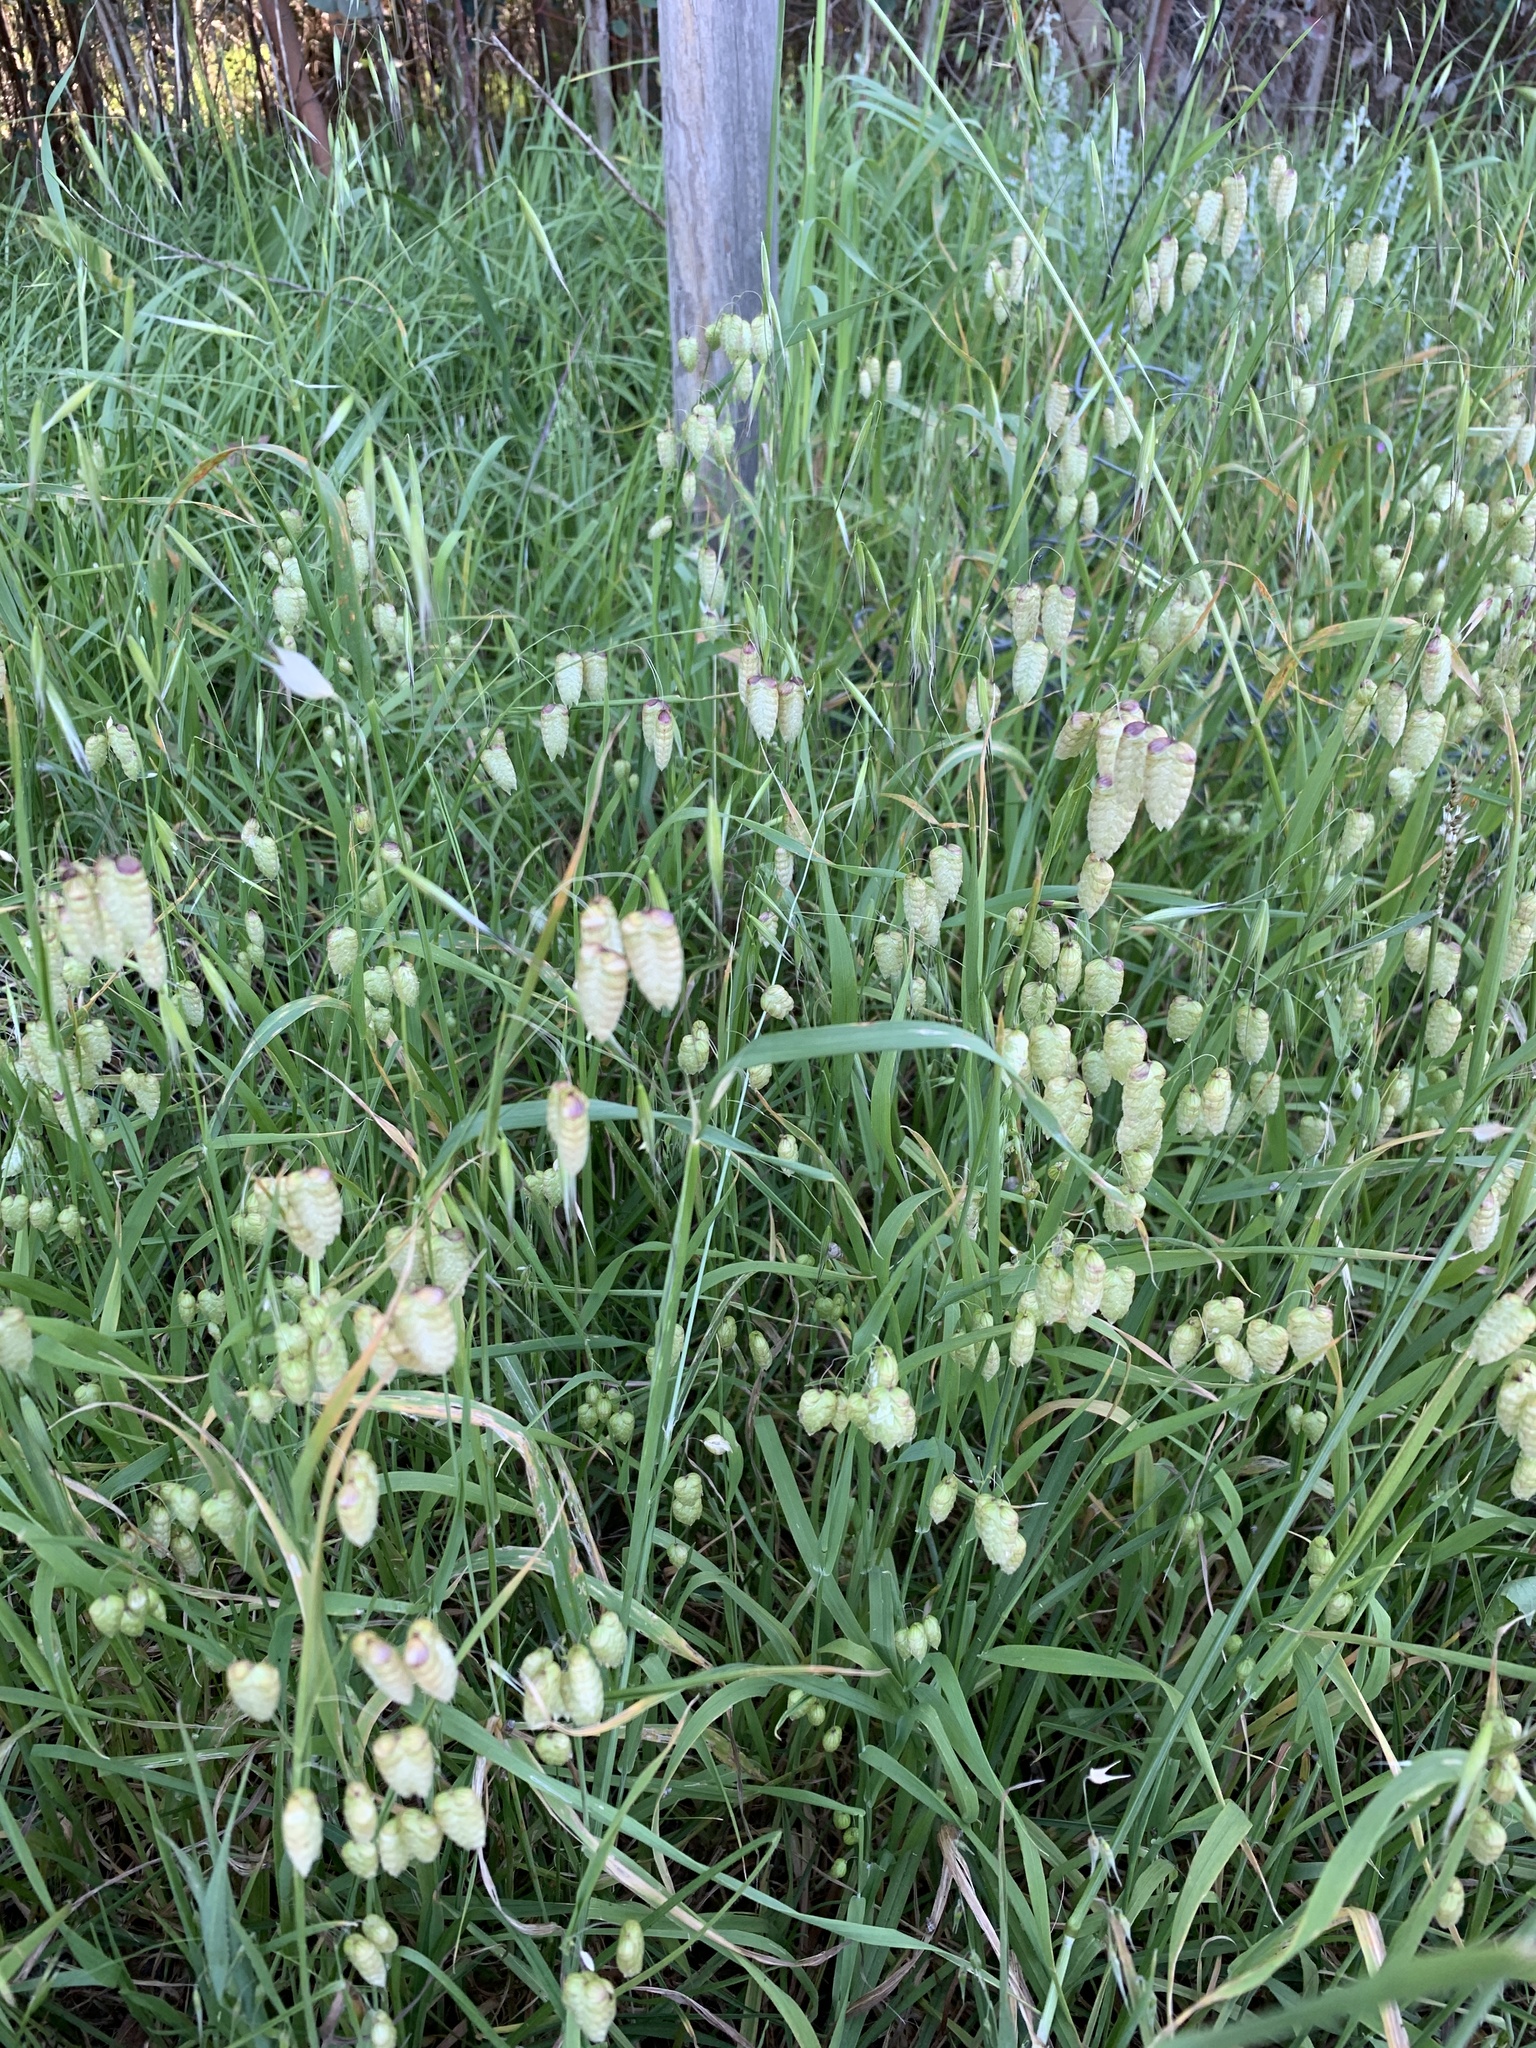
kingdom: Plantae
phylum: Tracheophyta
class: Liliopsida
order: Poales
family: Poaceae
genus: Briza
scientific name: Briza maxima
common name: Big quakinggrass
